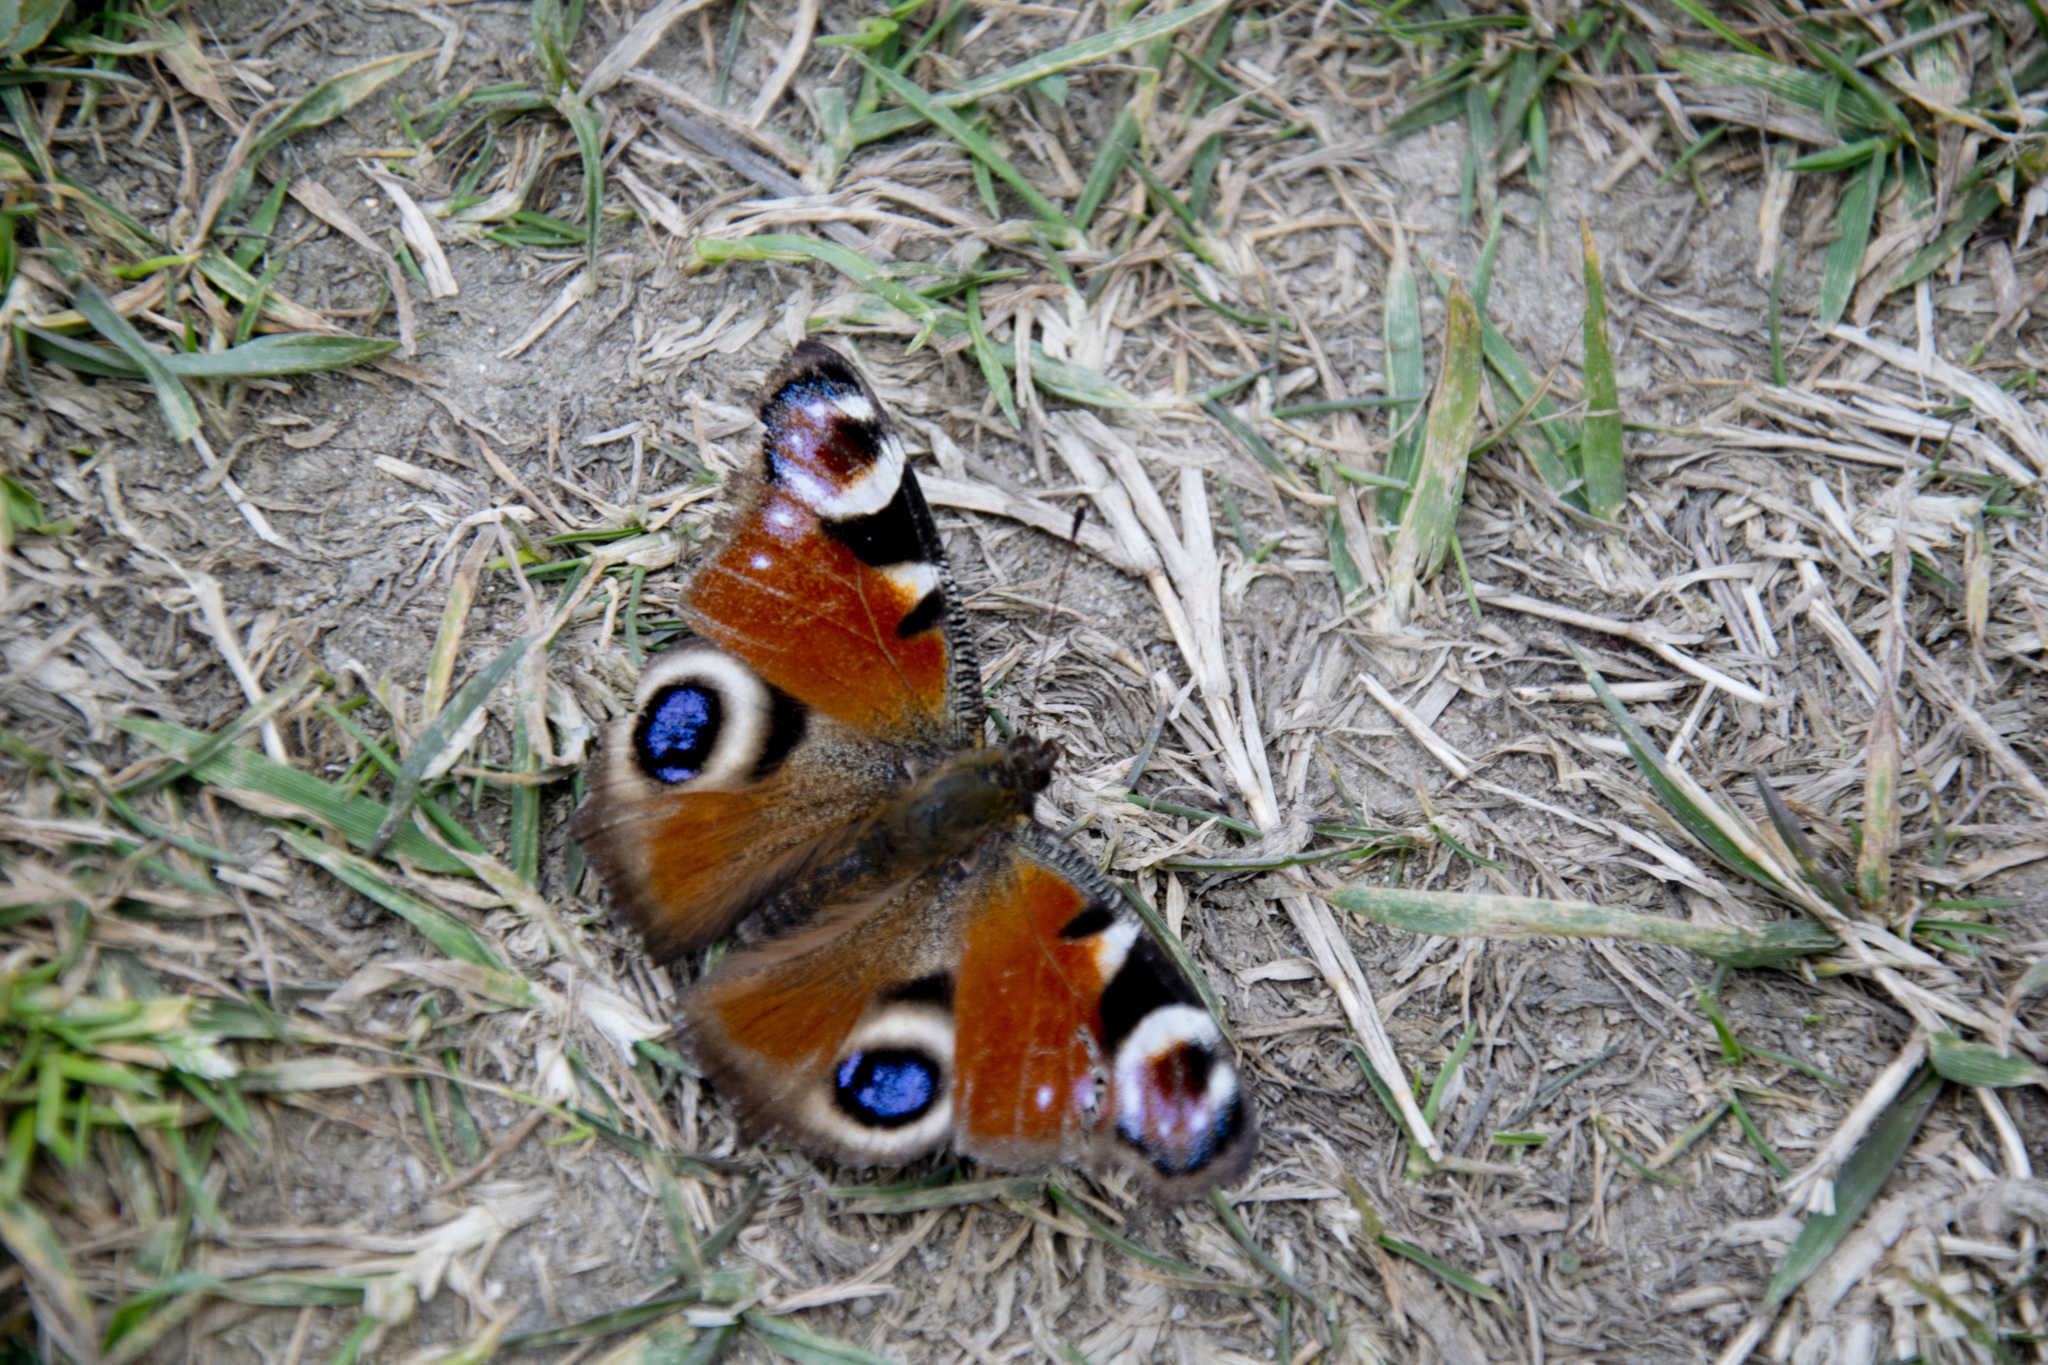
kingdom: Animalia
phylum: Arthropoda
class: Insecta
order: Lepidoptera
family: Nymphalidae
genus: Aglais
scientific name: Aglais io
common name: Peacock
